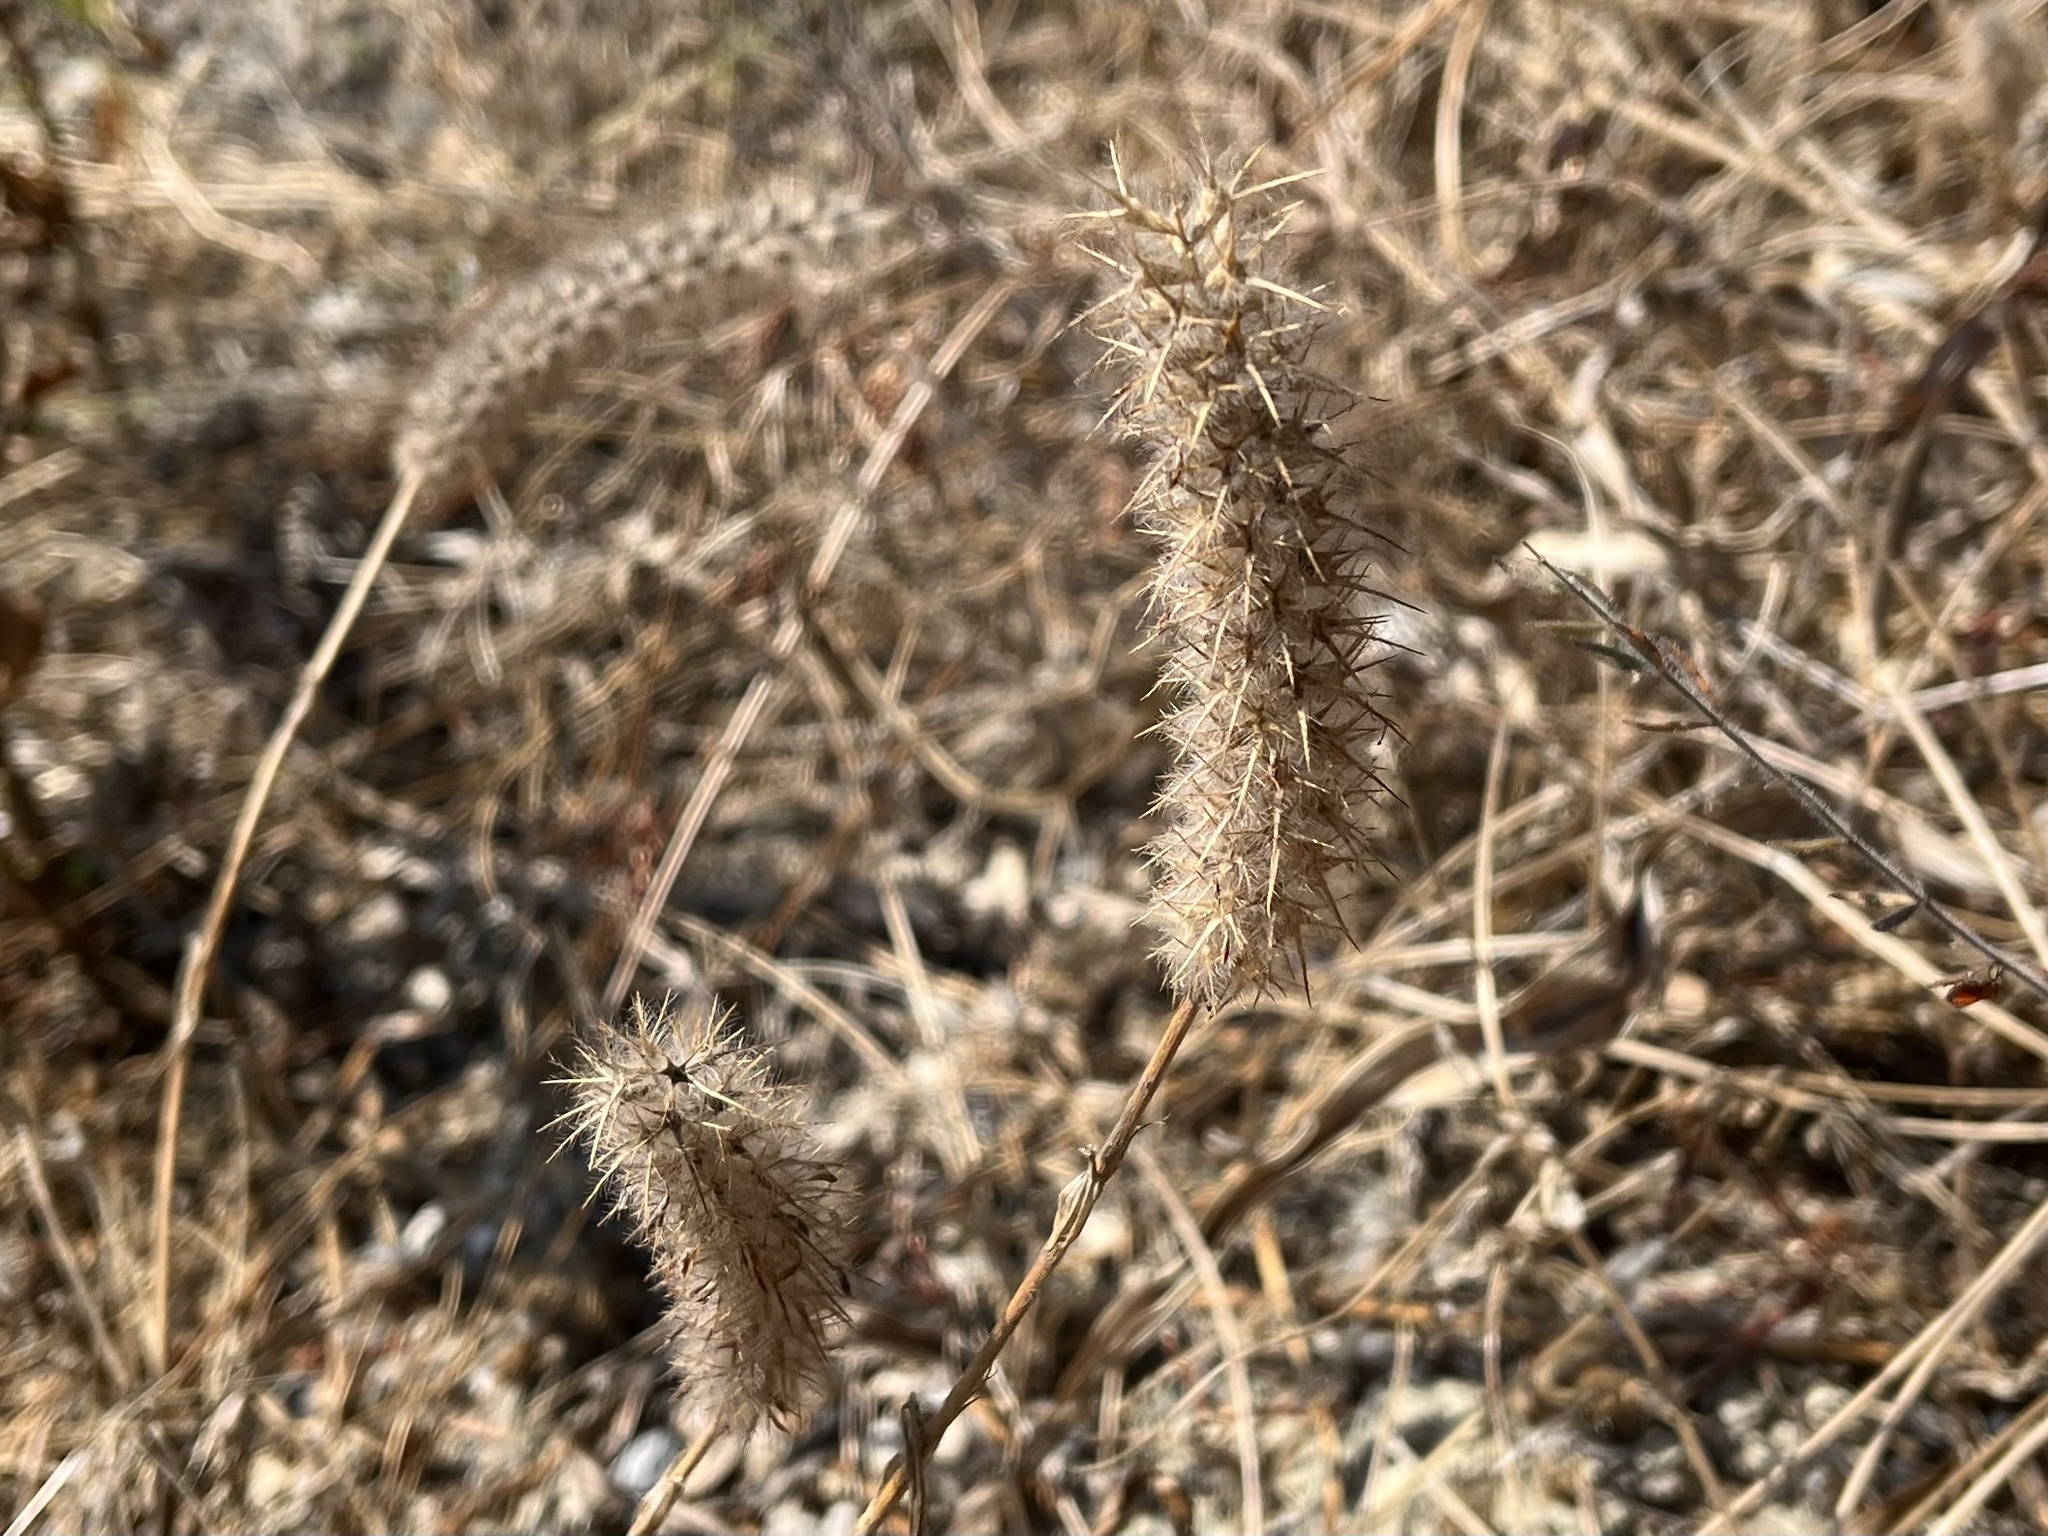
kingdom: Plantae
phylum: Tracheophyta
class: Magnoliopsida
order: Fabales
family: Fabaceae
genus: Trifolium
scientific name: Trifolium angustifolium
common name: Narrow clover
